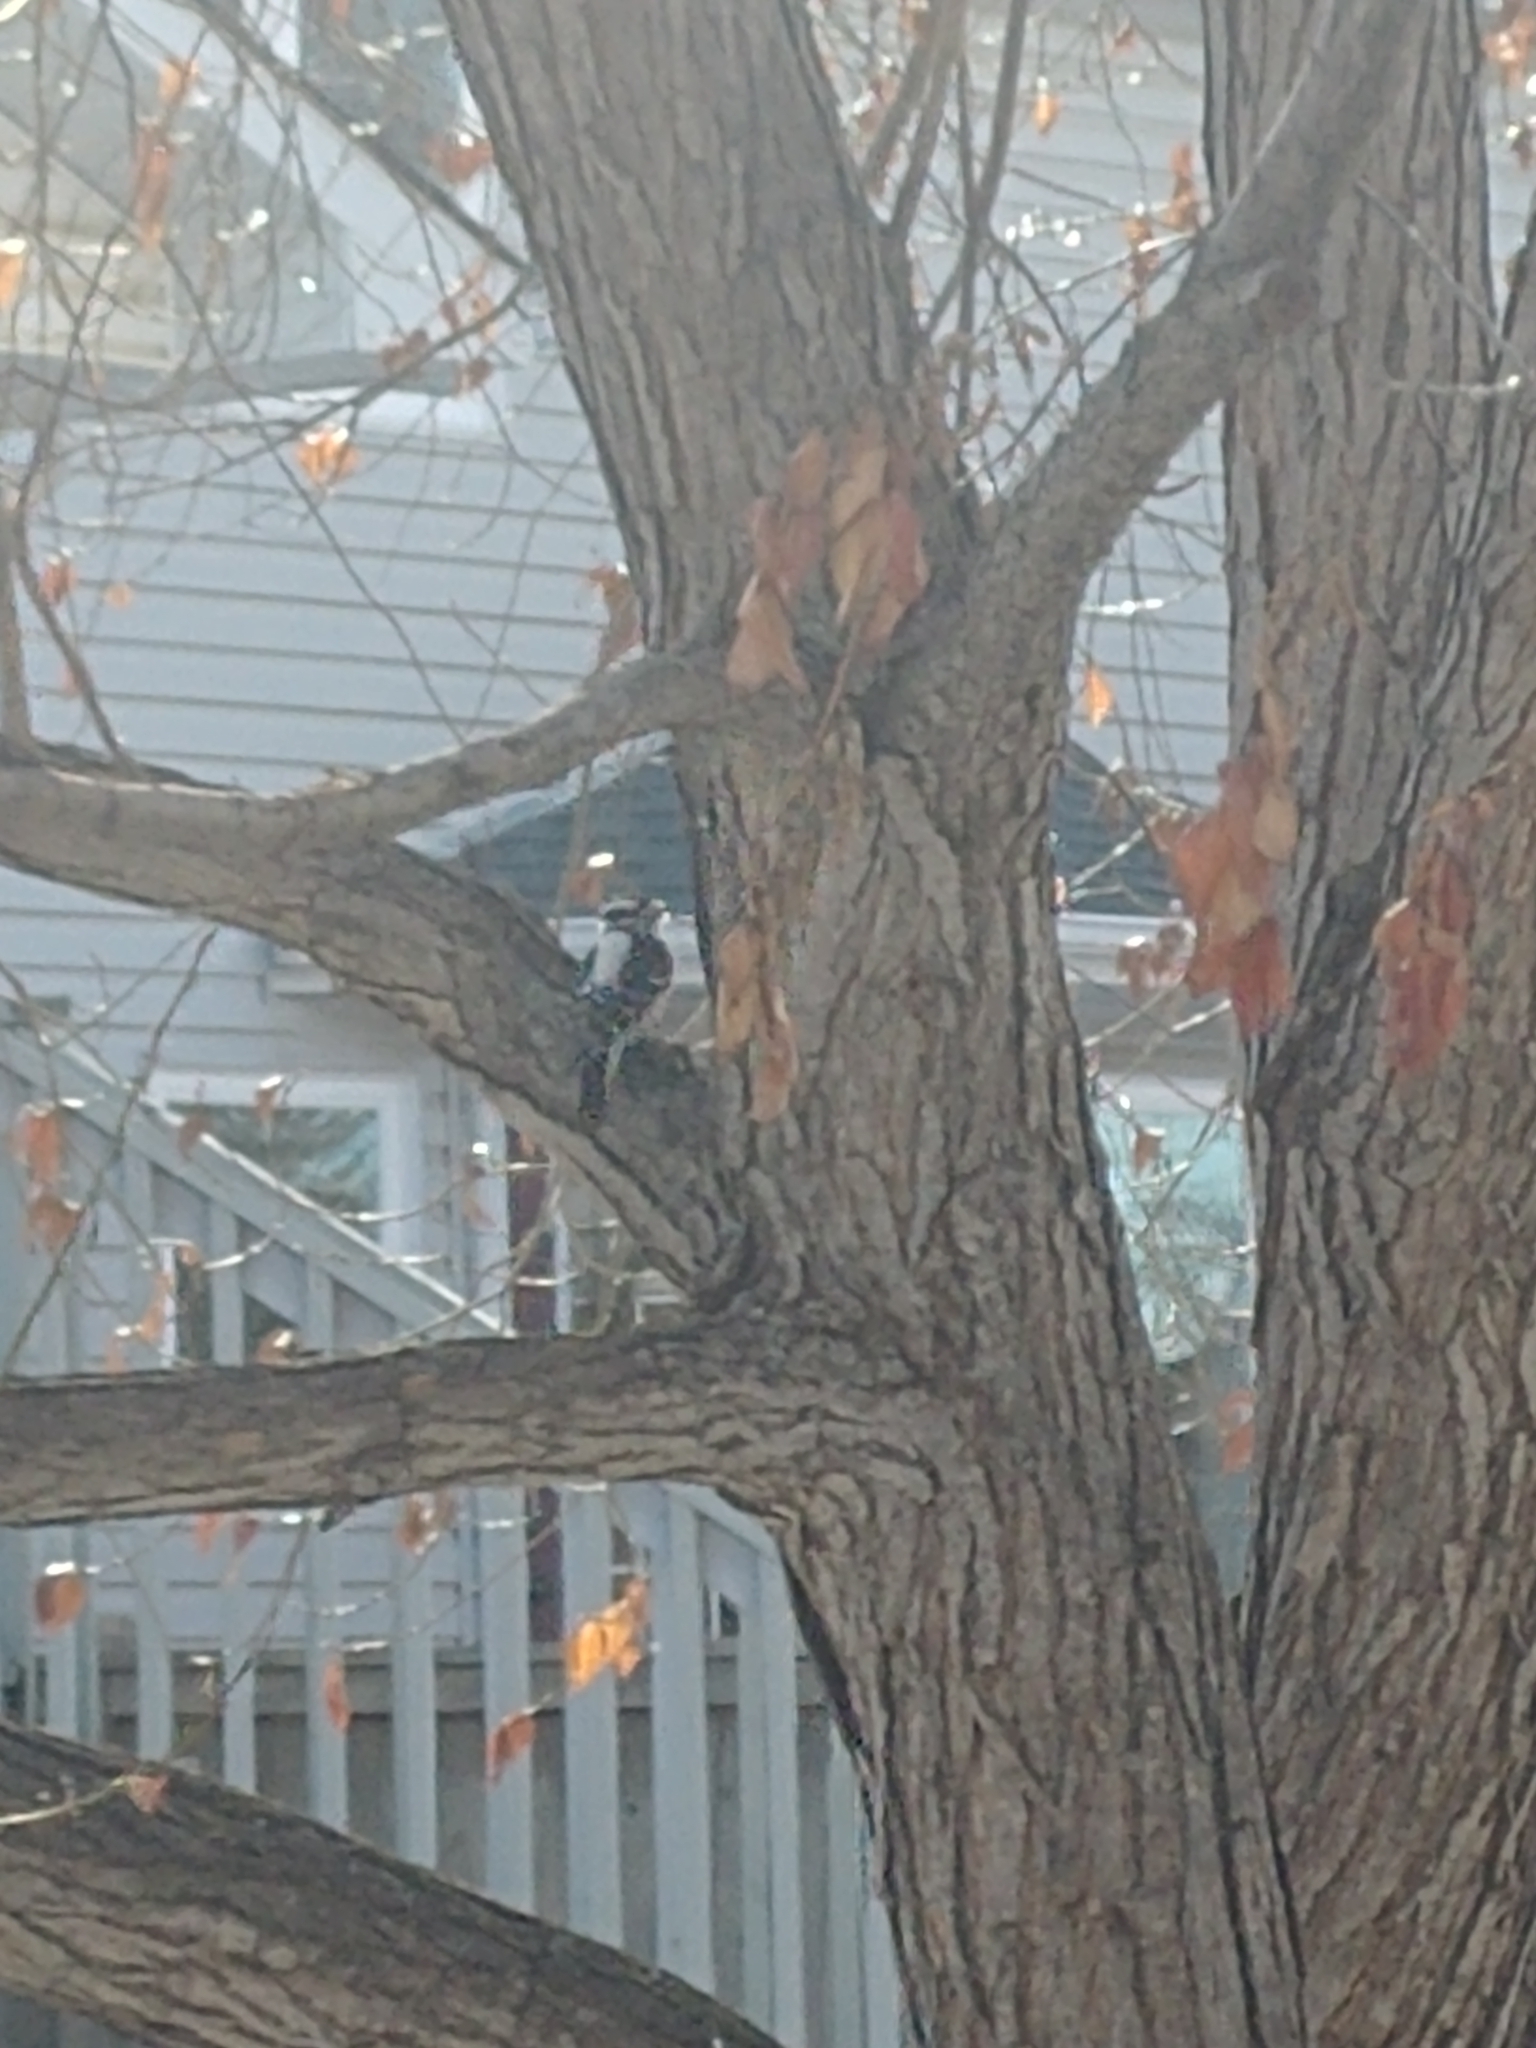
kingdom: Animalia
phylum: Chordata
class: Aves
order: Piciformes
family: Picidae
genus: Dryobates
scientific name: Dryobates pubescens
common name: Downy woodpecker
